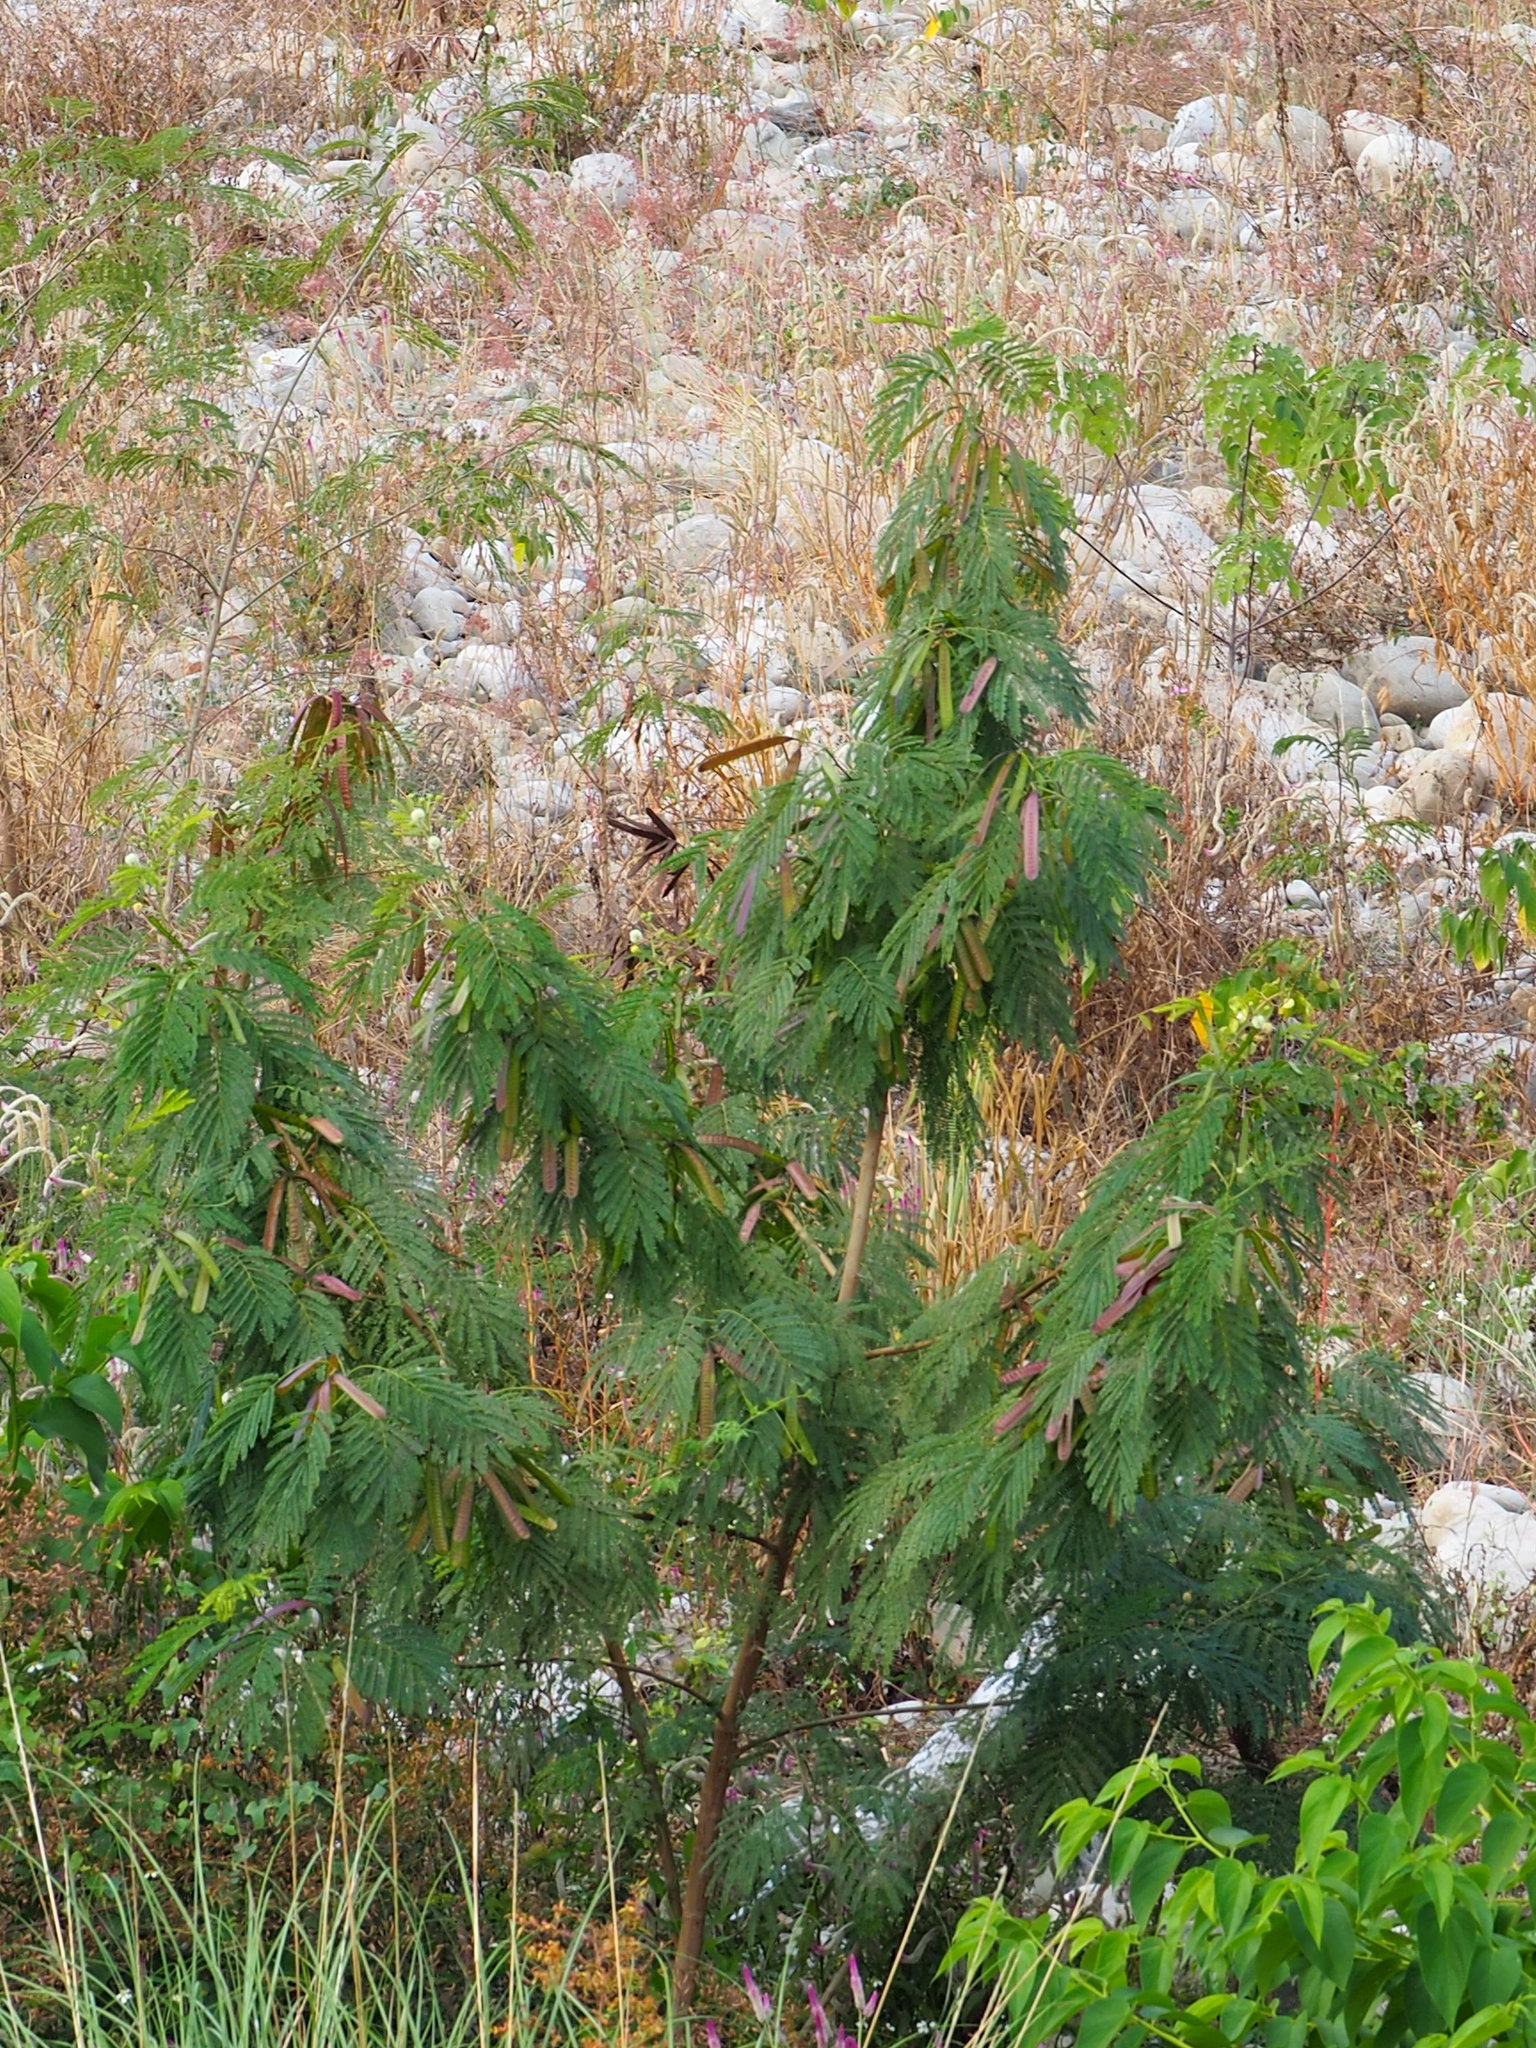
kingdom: Plantae
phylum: Tracheophyta
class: Magnoliopsida
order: Fabales
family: Fabaceae
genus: Leucaena
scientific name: Leucaena leucocephala
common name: White leadtree
